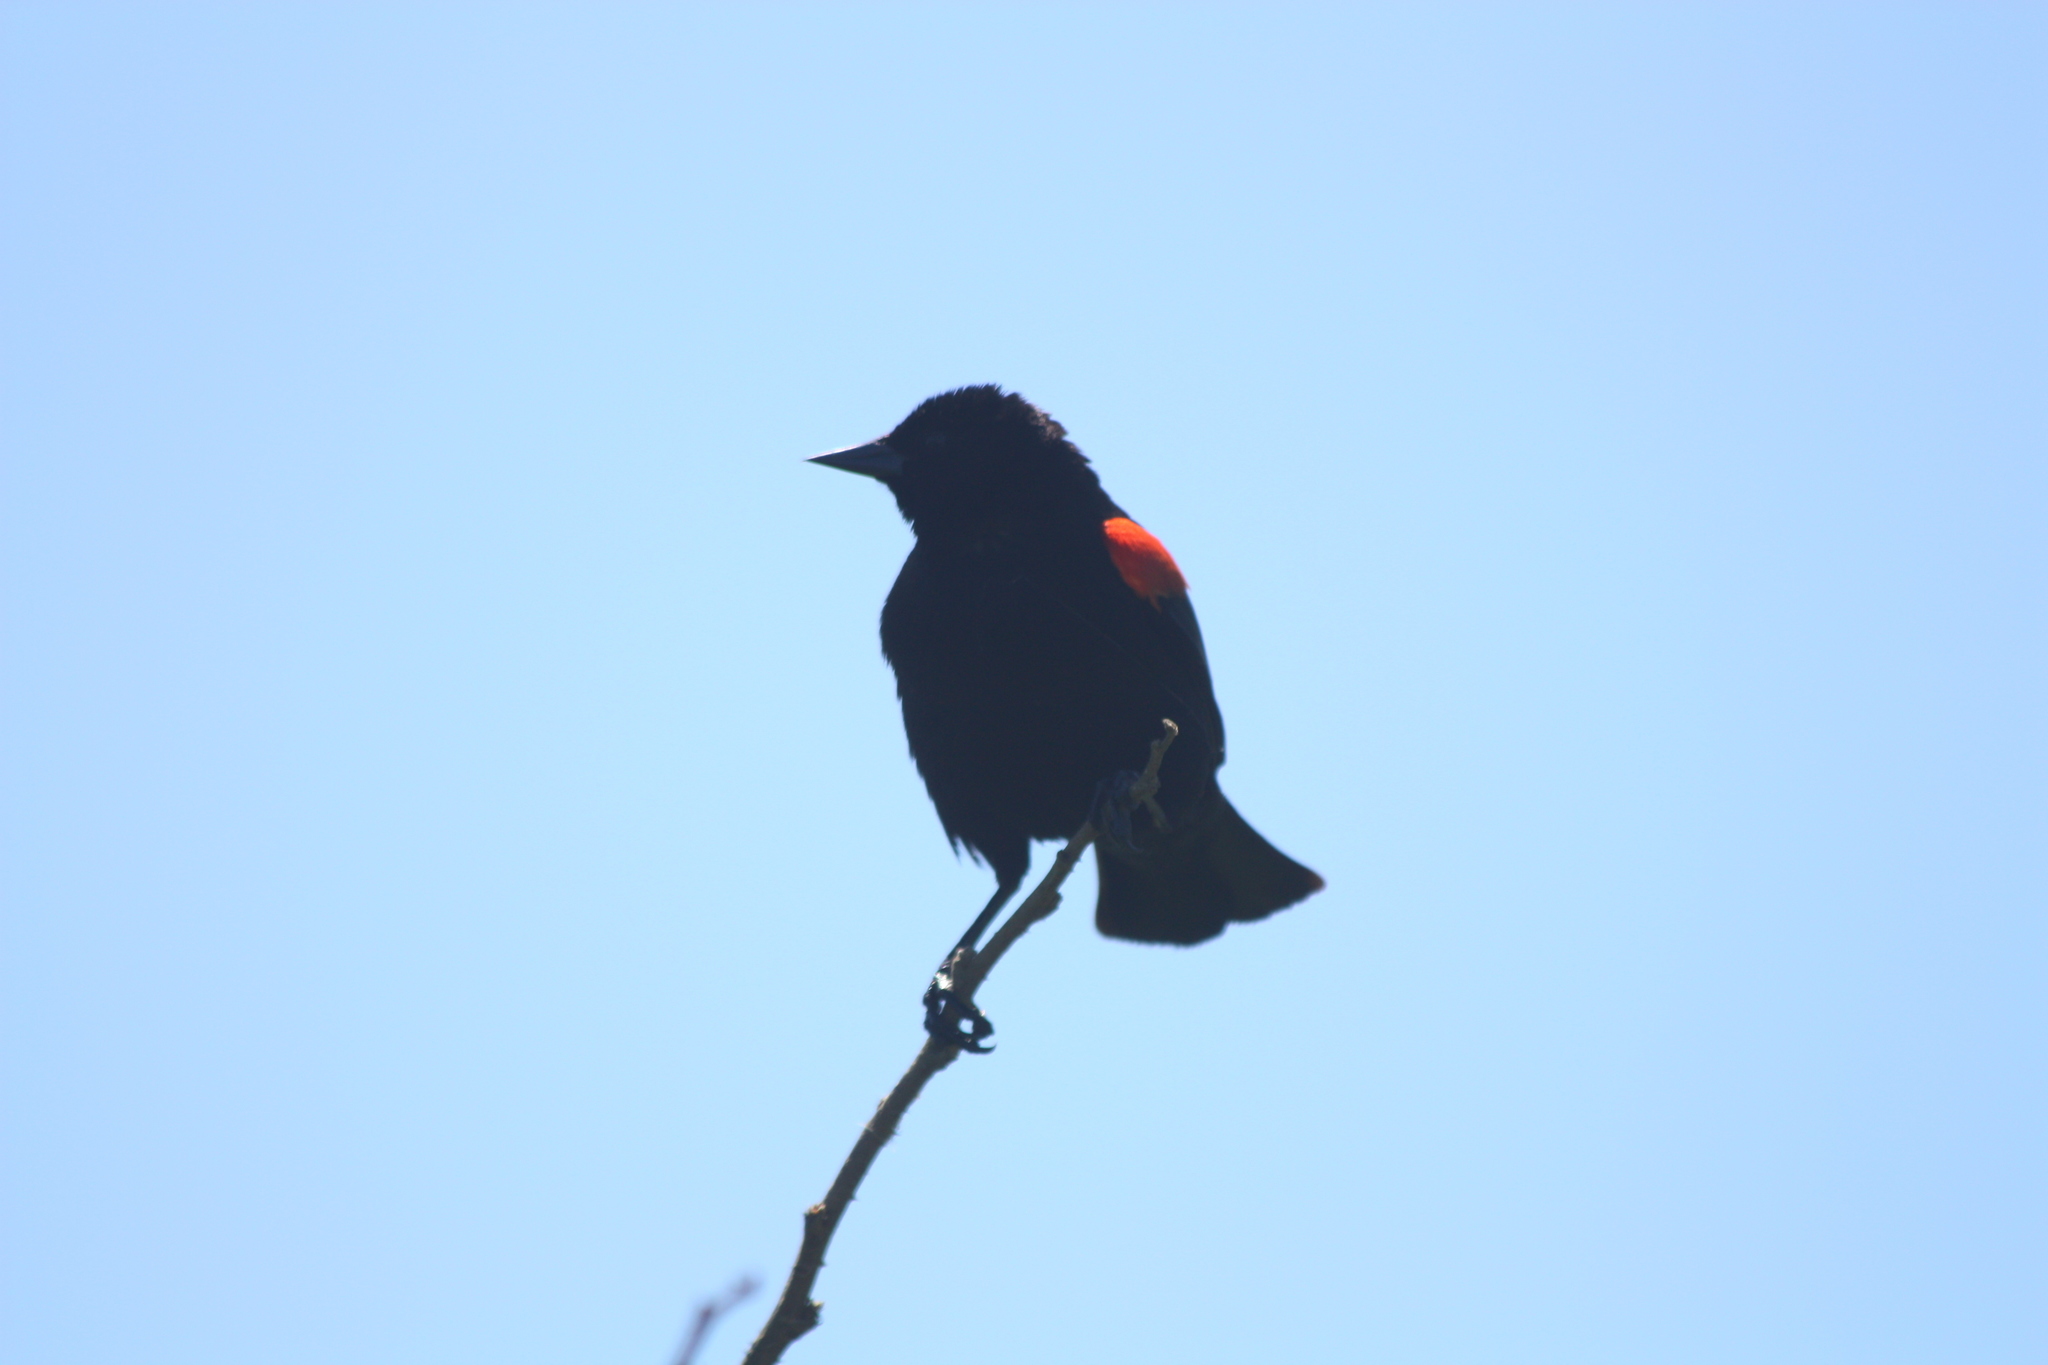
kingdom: Animalia
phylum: Chordata
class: Aves
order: Passeriformes
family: Icteridae
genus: Agelaius
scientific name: Agelaius phoeniceus
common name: Red-winged blackbird
